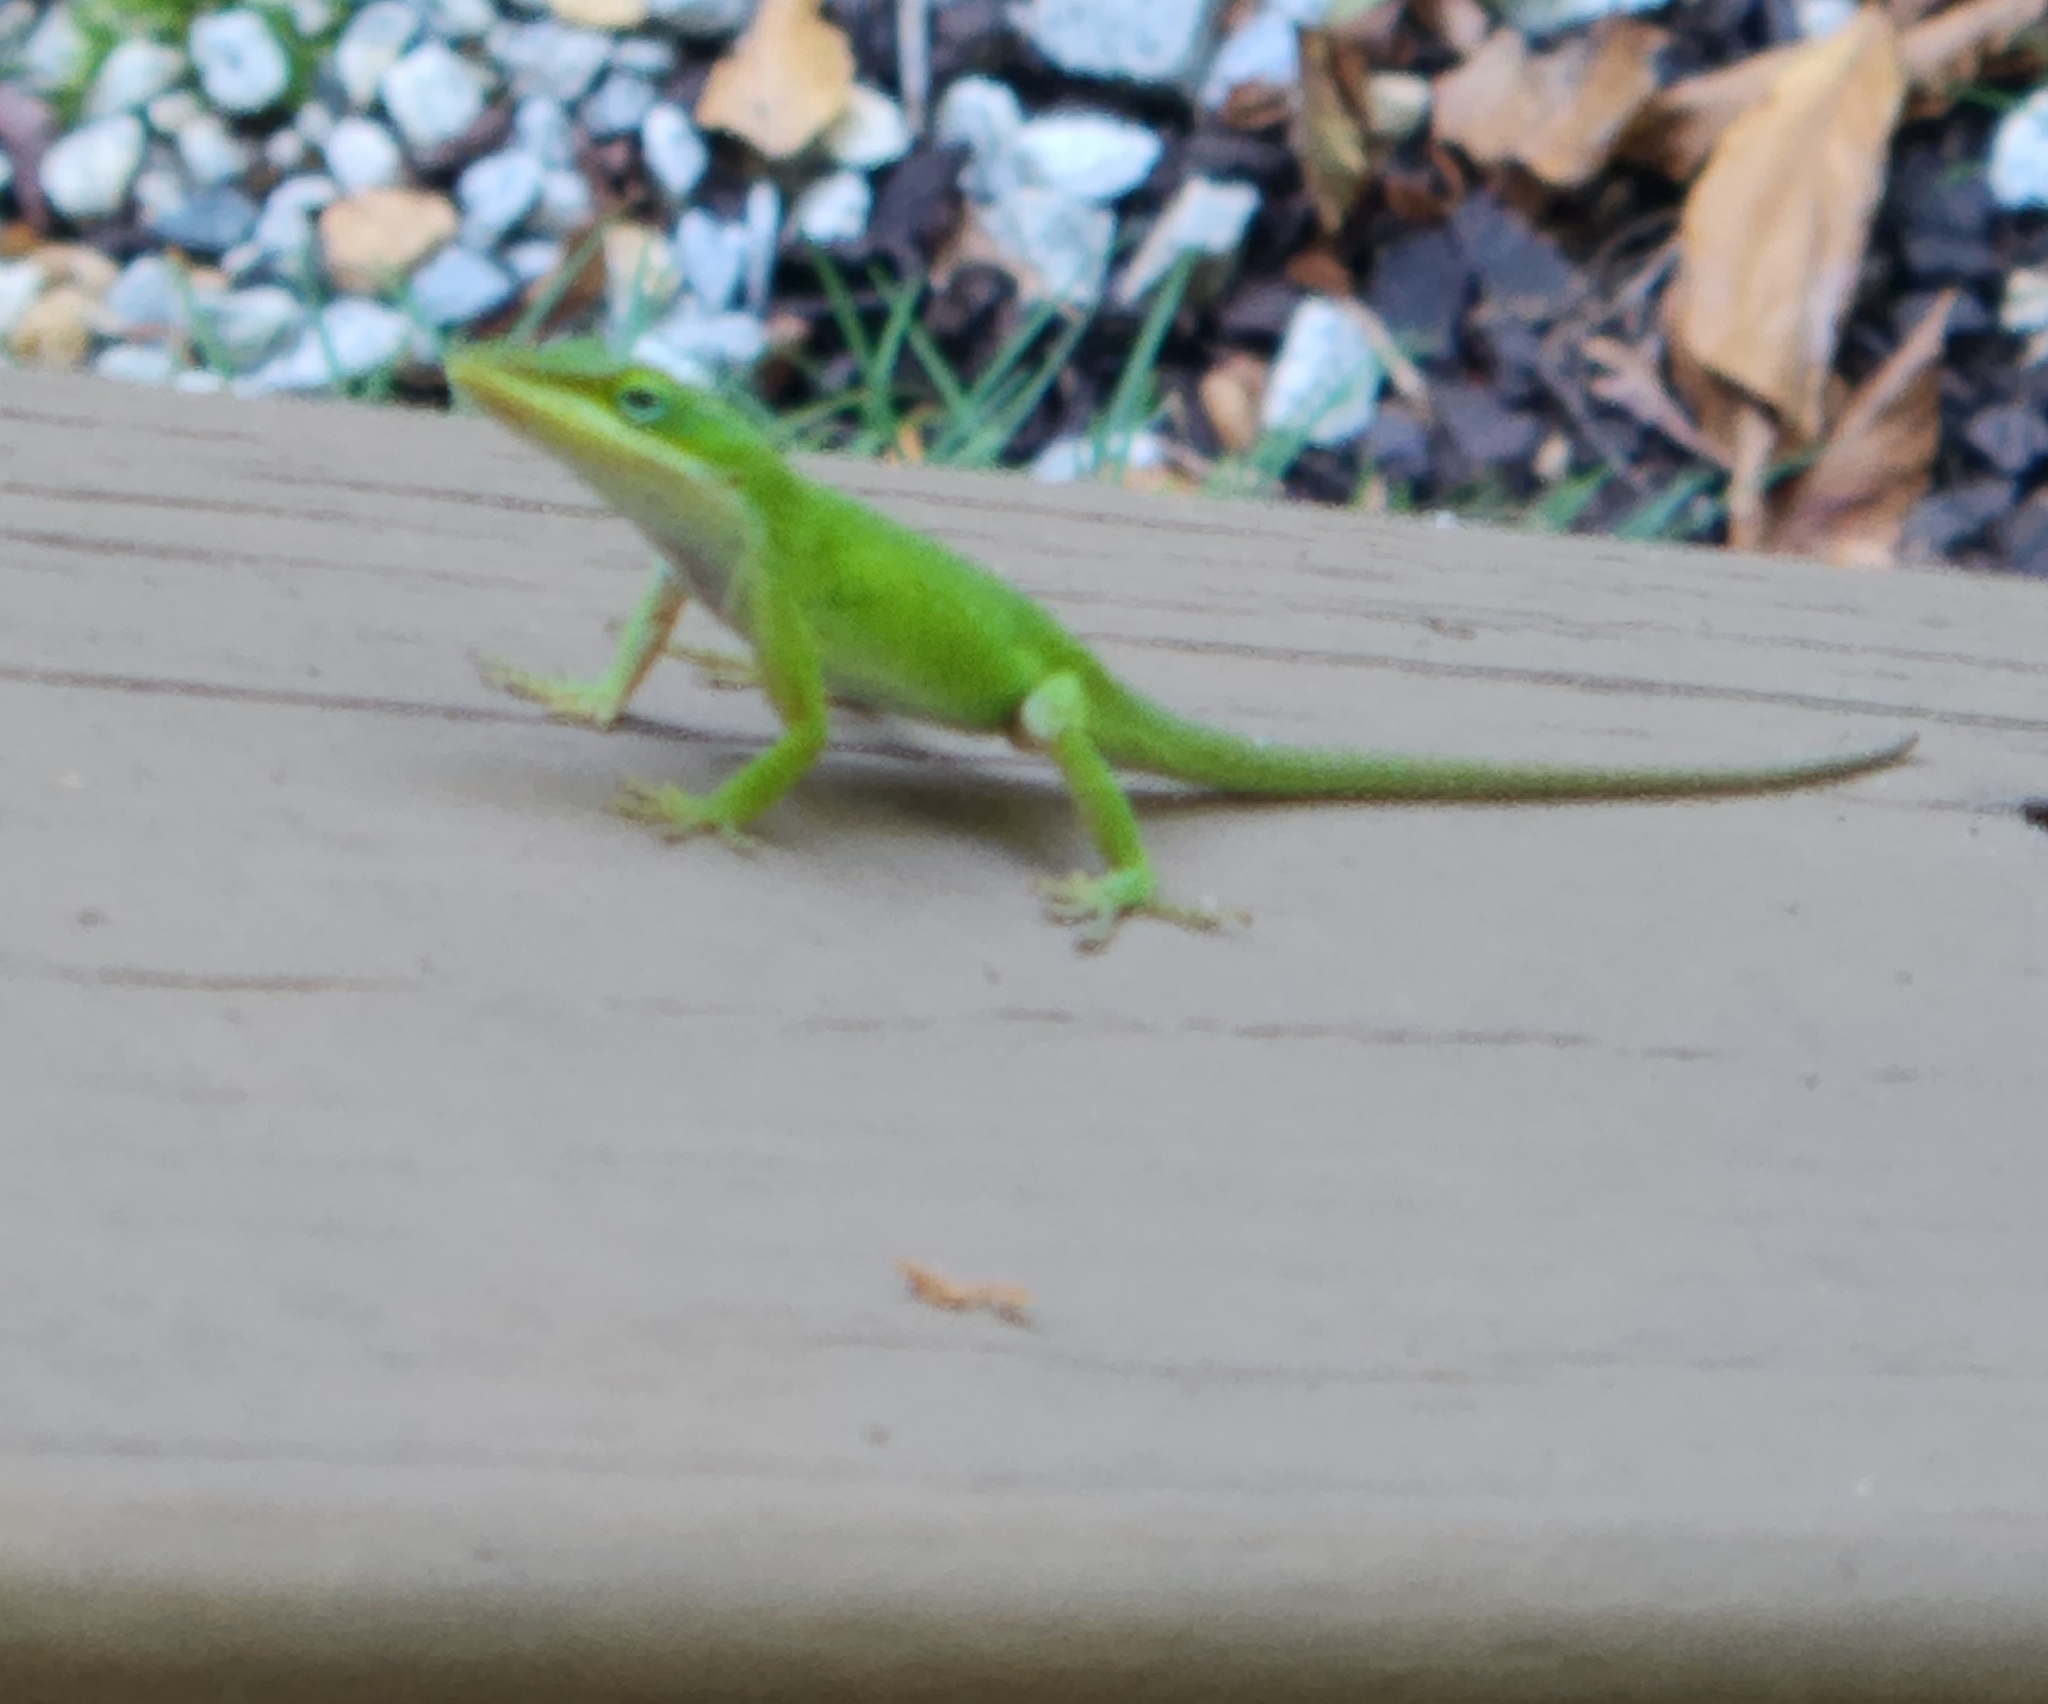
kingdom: Animalia
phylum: Chordata
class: Squamata
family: Dactyloidae
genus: Anolis
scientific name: Anolis carolinensis
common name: Green anole
